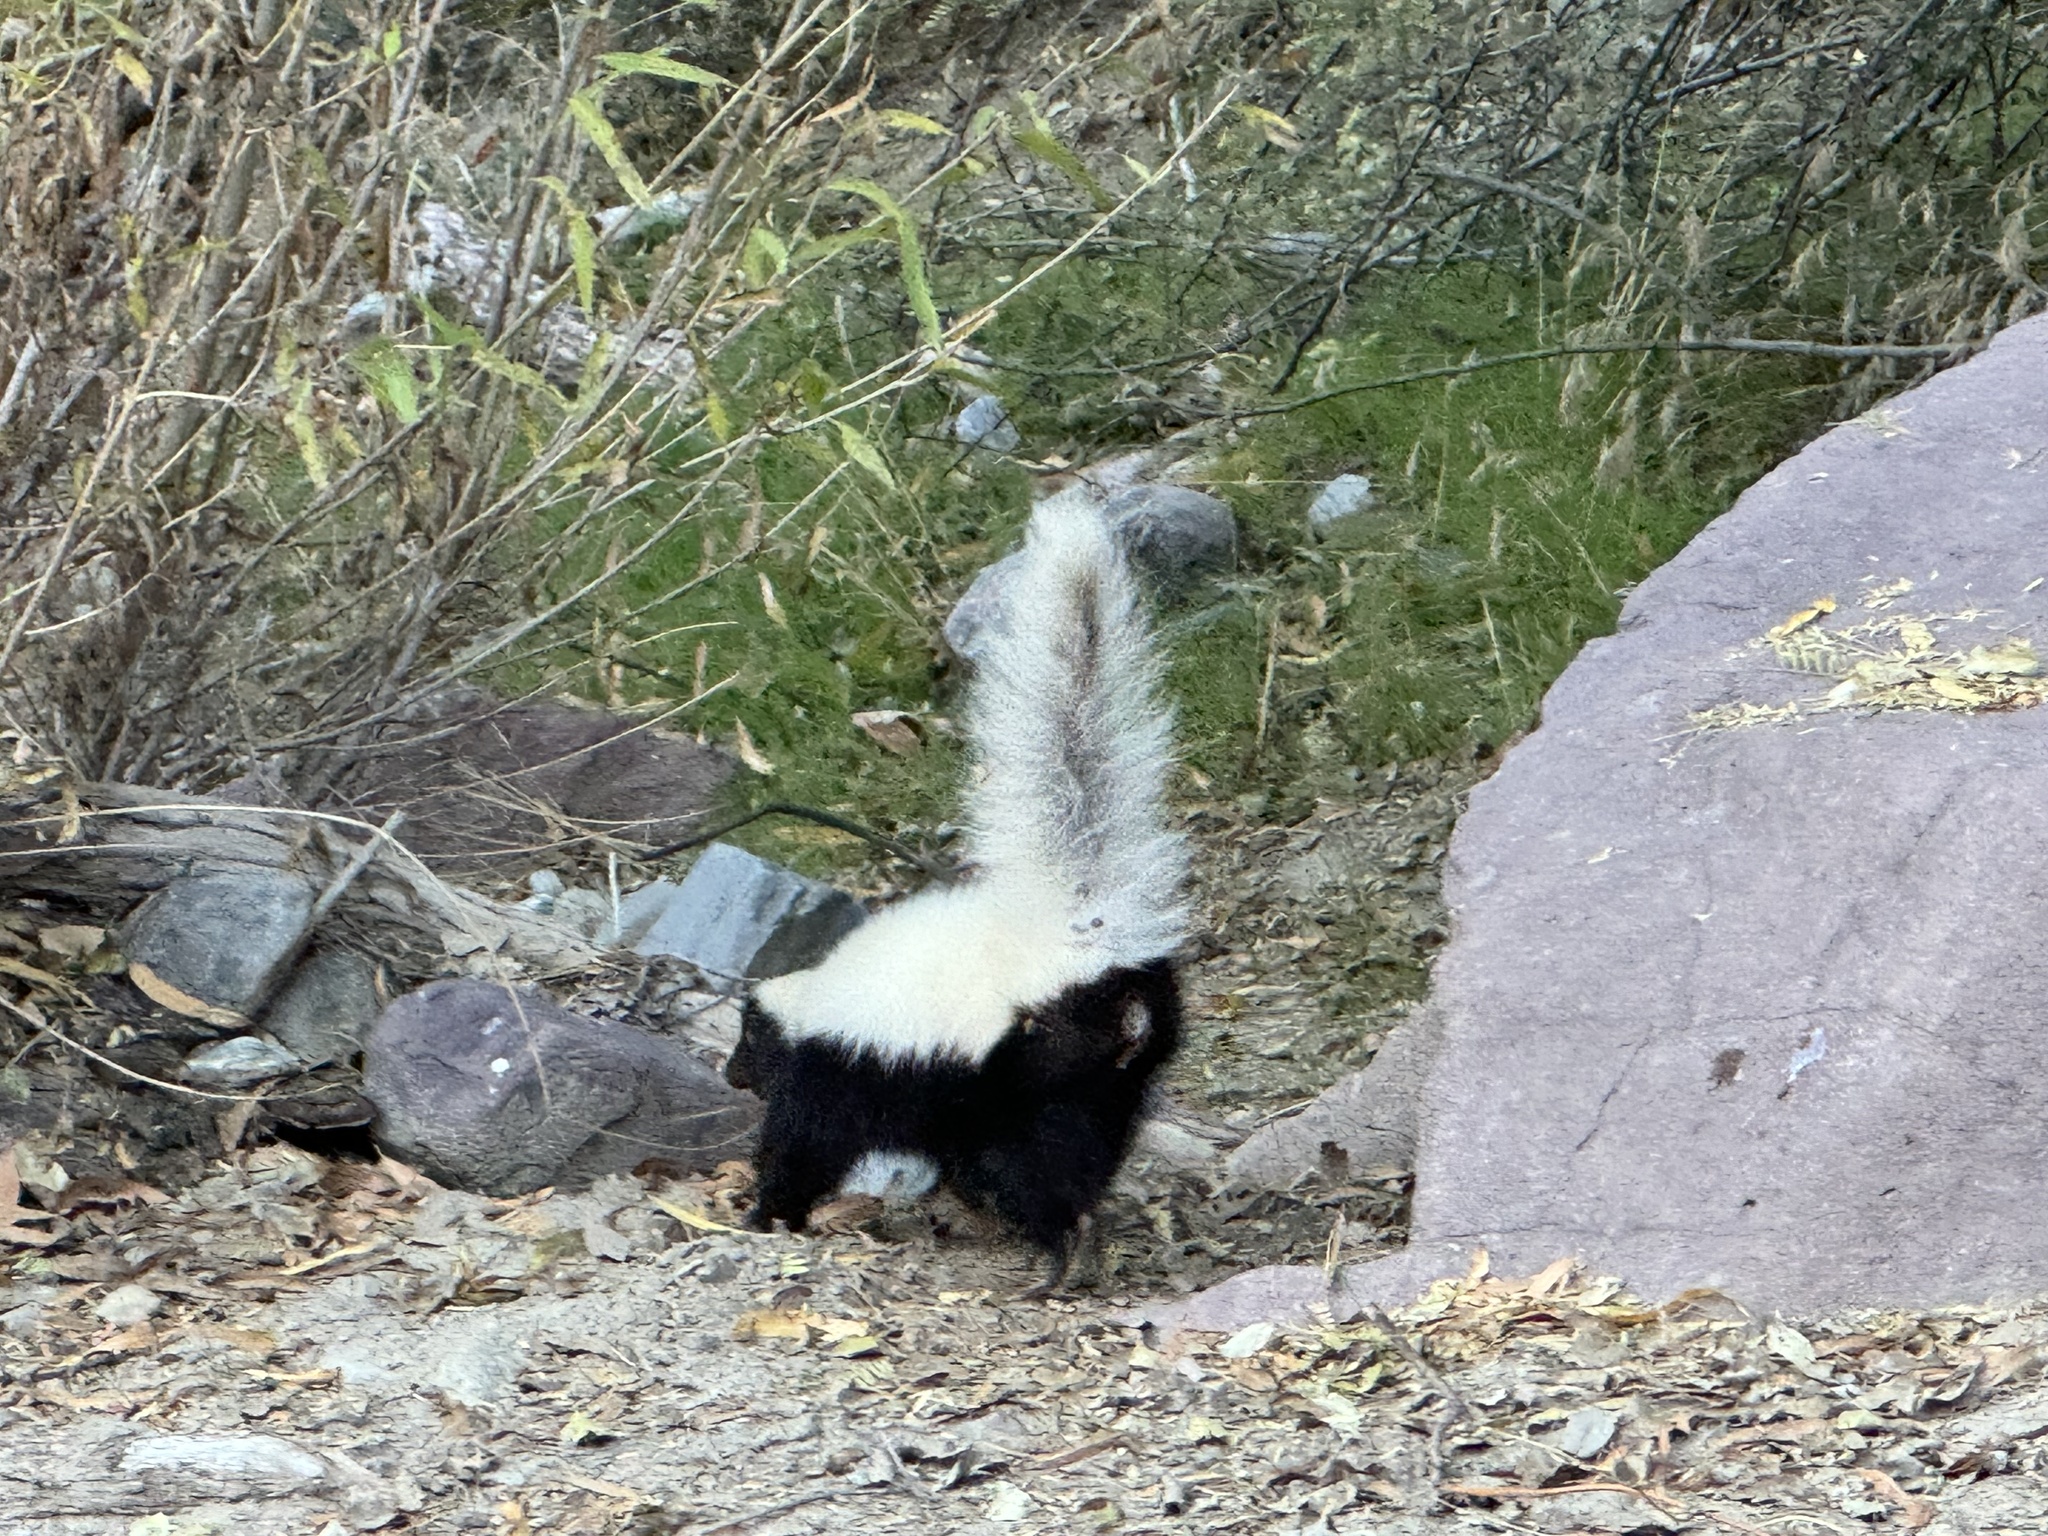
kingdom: Animalia
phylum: Chordata
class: Mammalia
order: Carnivora
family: Mephitidae
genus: Conepatus
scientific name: Conepatus leuconotus
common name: Eastern hog-nosed skunk
